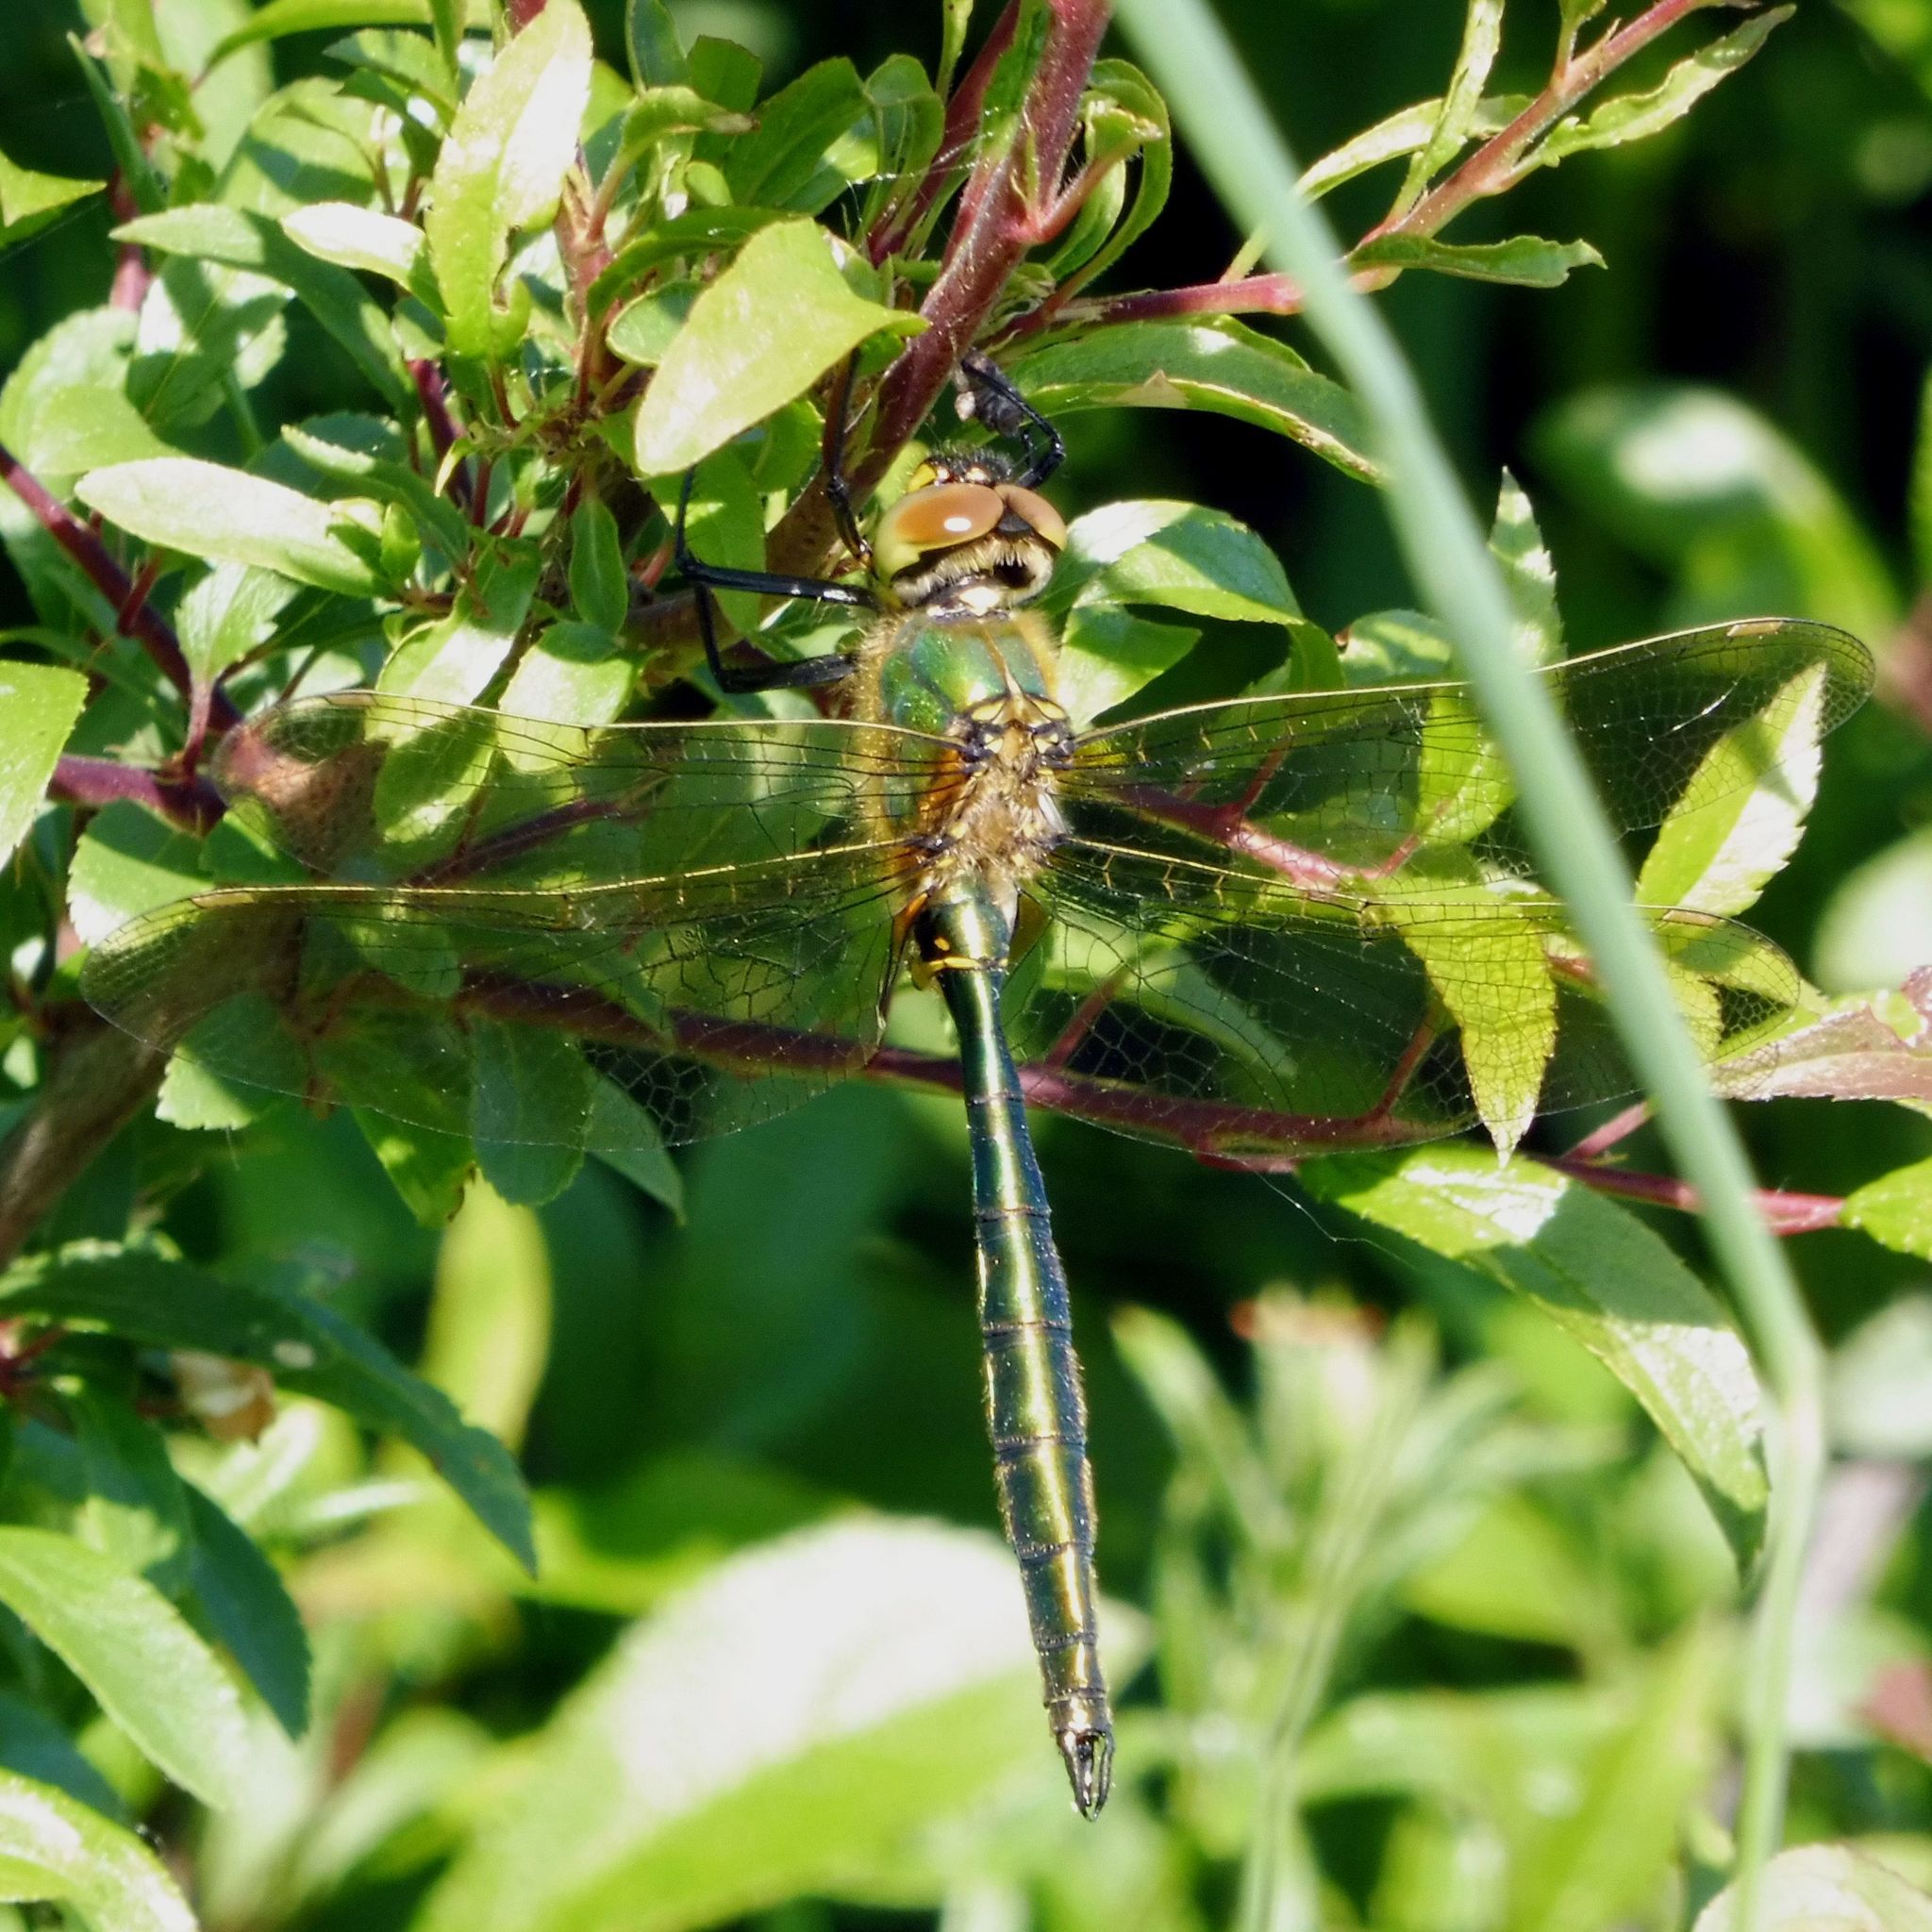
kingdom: Animalia
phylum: Arthropoda
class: Insecta
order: Odonata
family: Corduliidae
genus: Somatochlora
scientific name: Somatochlora metallica
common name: Brilliant emerald
